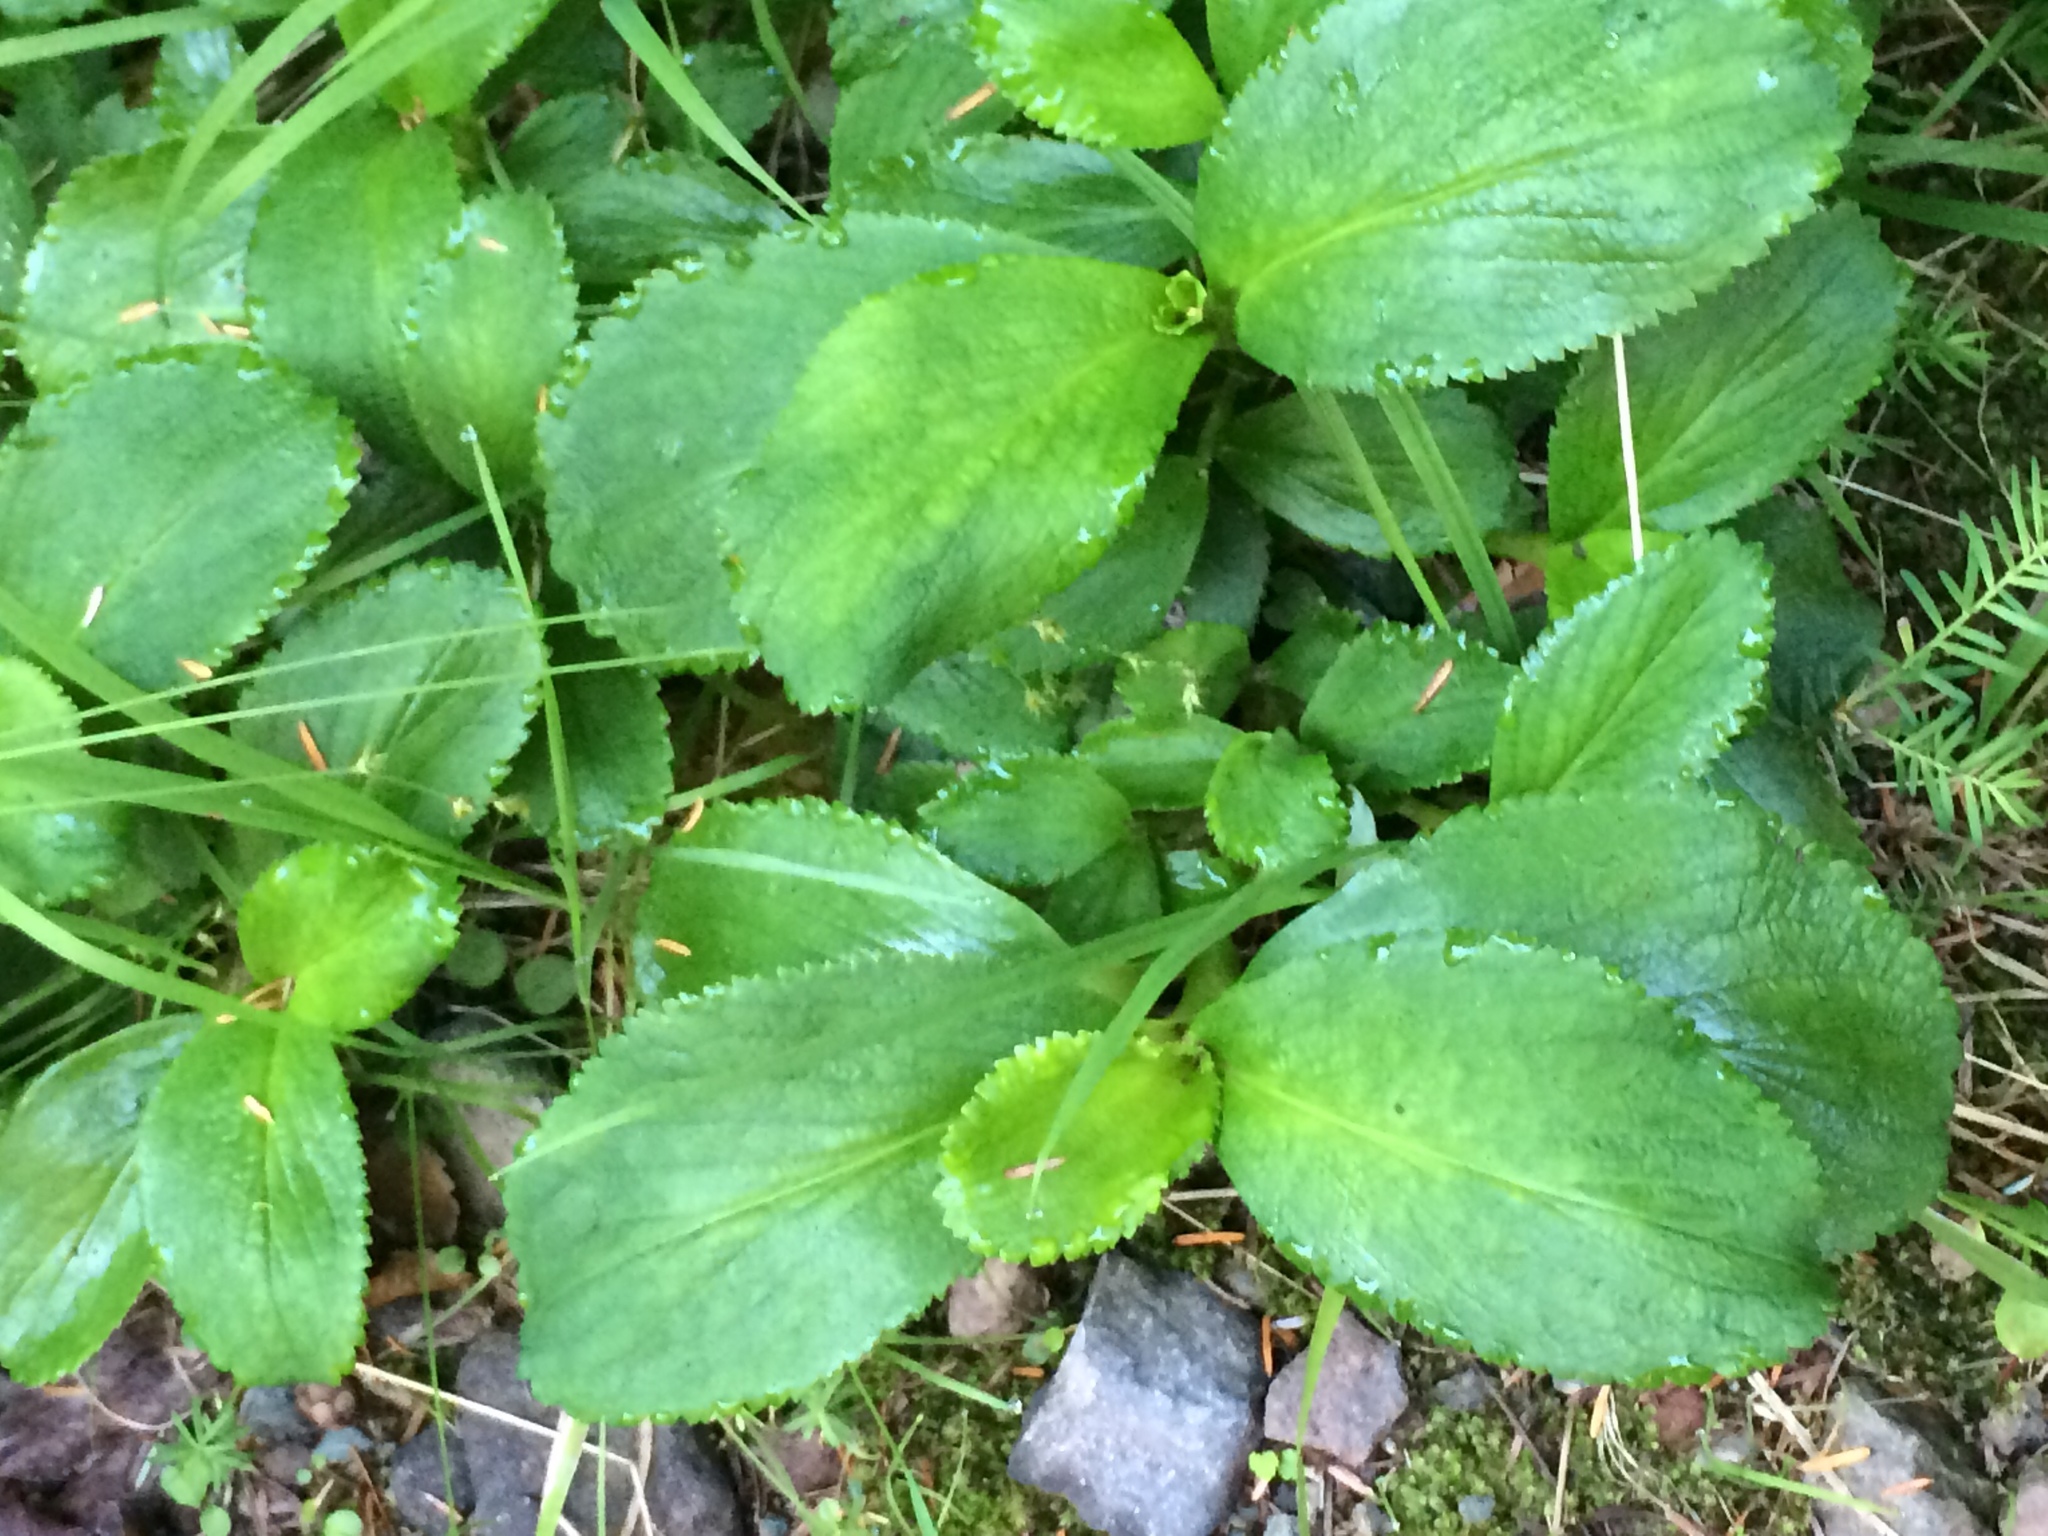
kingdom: Plantae
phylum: Tracheophyta
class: Magnoliopsida
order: Saxifragales
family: Saxifragaceae
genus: Leptarrhena
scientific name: Leptarrhena pyrolifolia
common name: Leatherleaf-saxifrage
